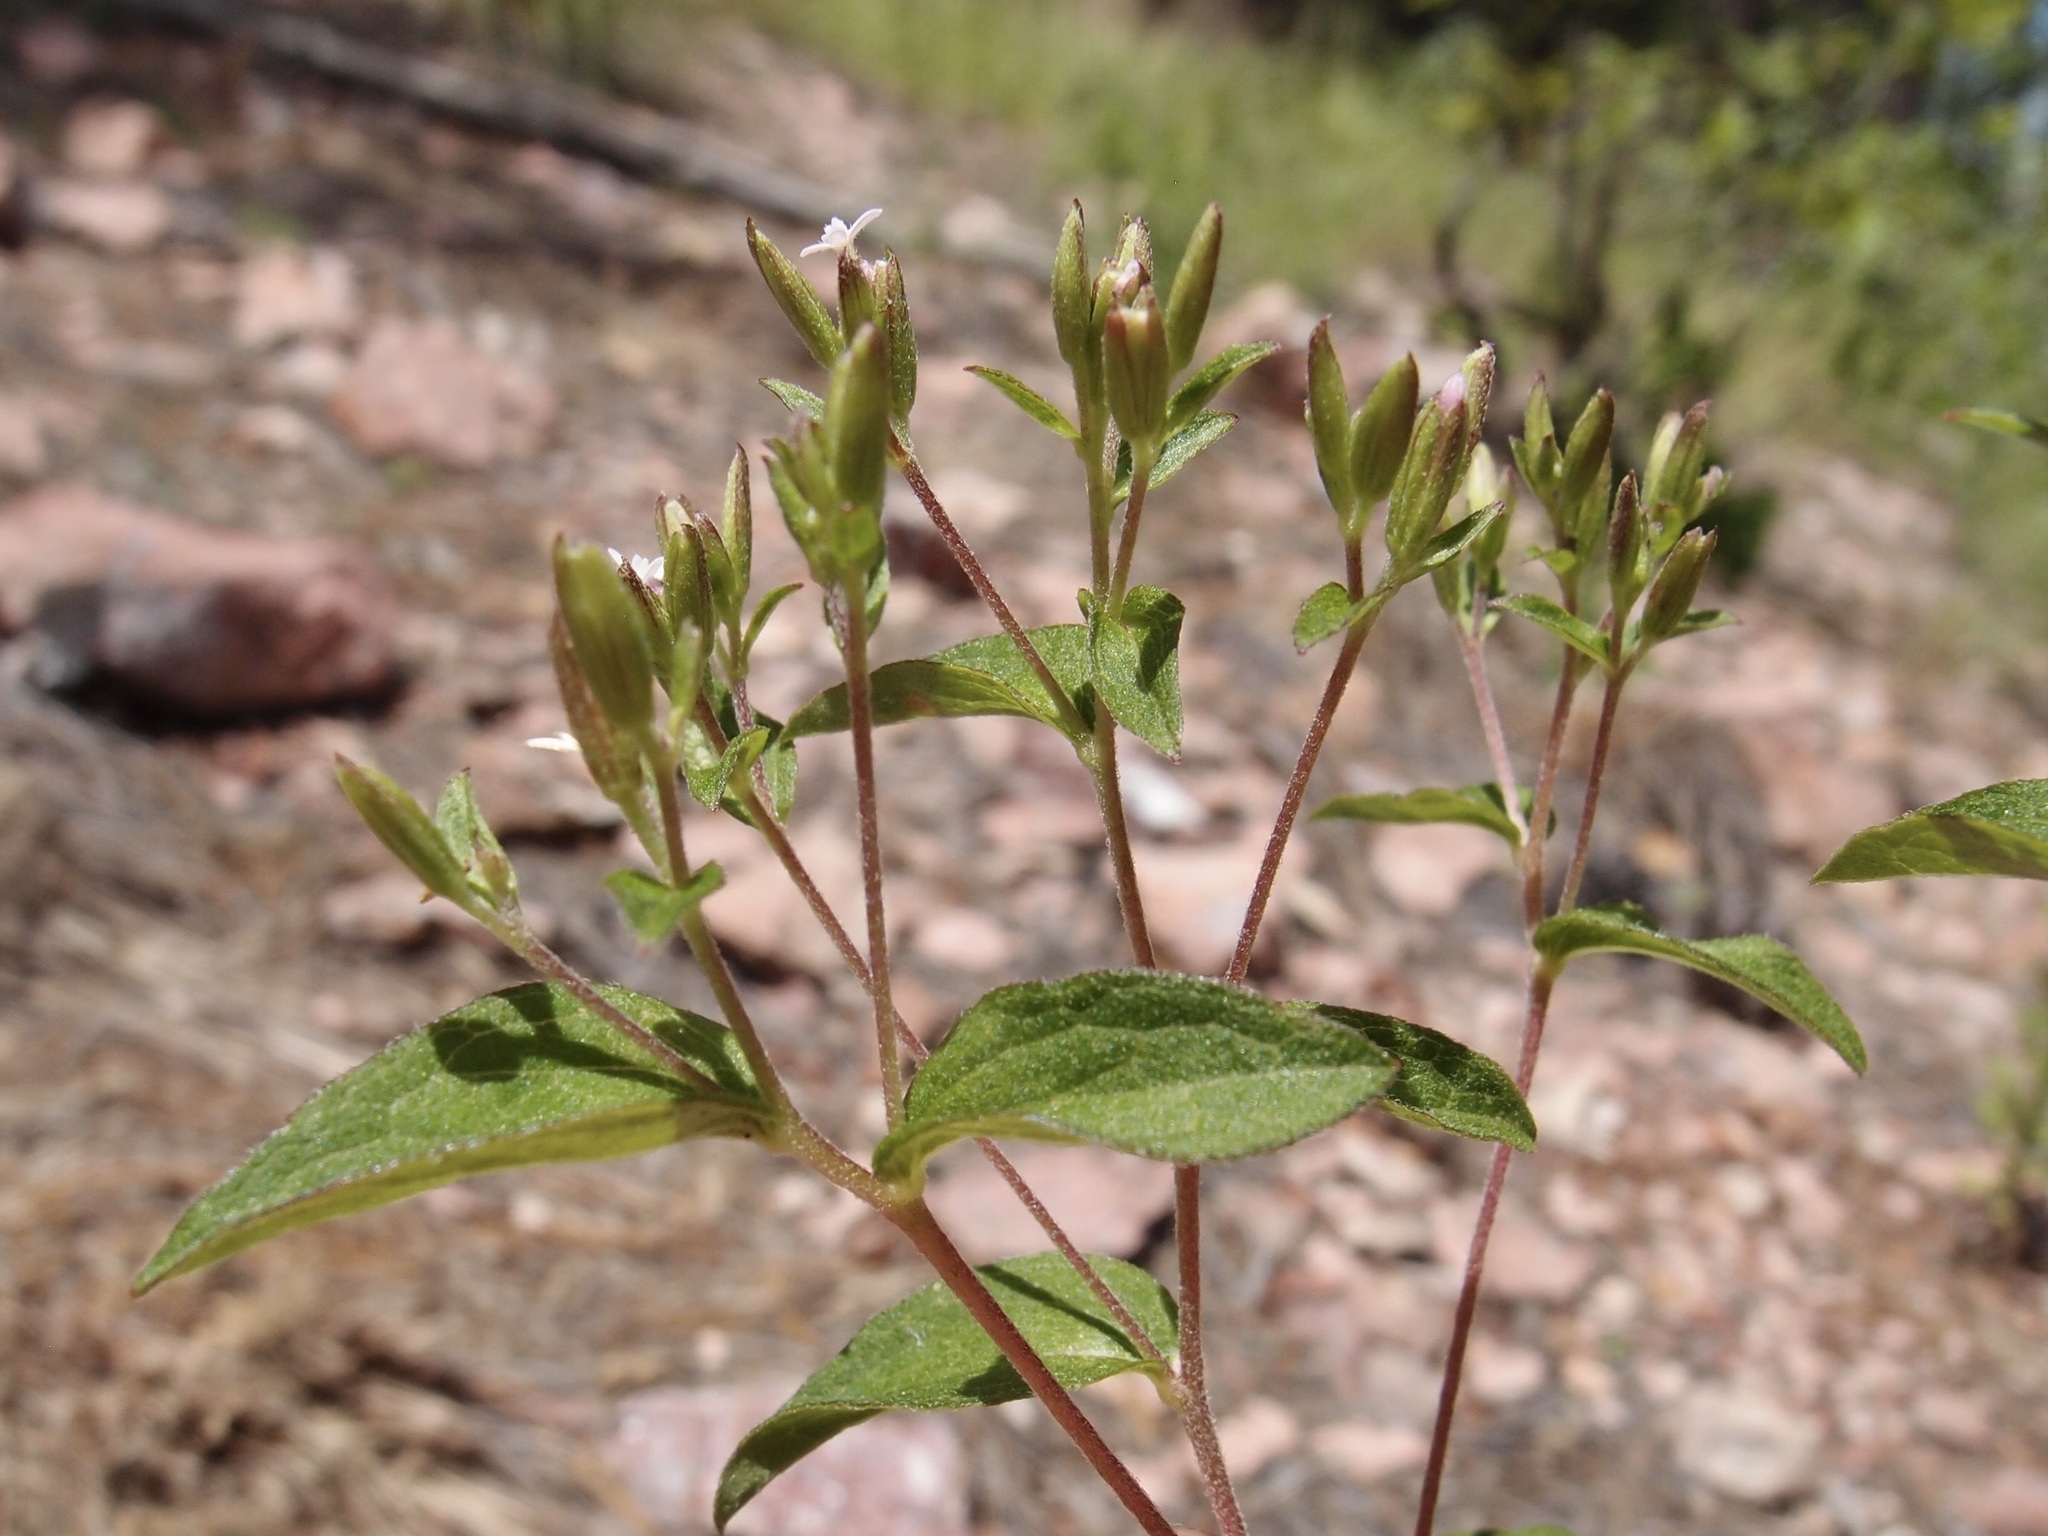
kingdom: Plantae
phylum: Tracheophyta
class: Magnoliopsida
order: Asterales
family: Asteraceae
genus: Stevia
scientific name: Stevia serrata
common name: Sawtooth candyleaf
